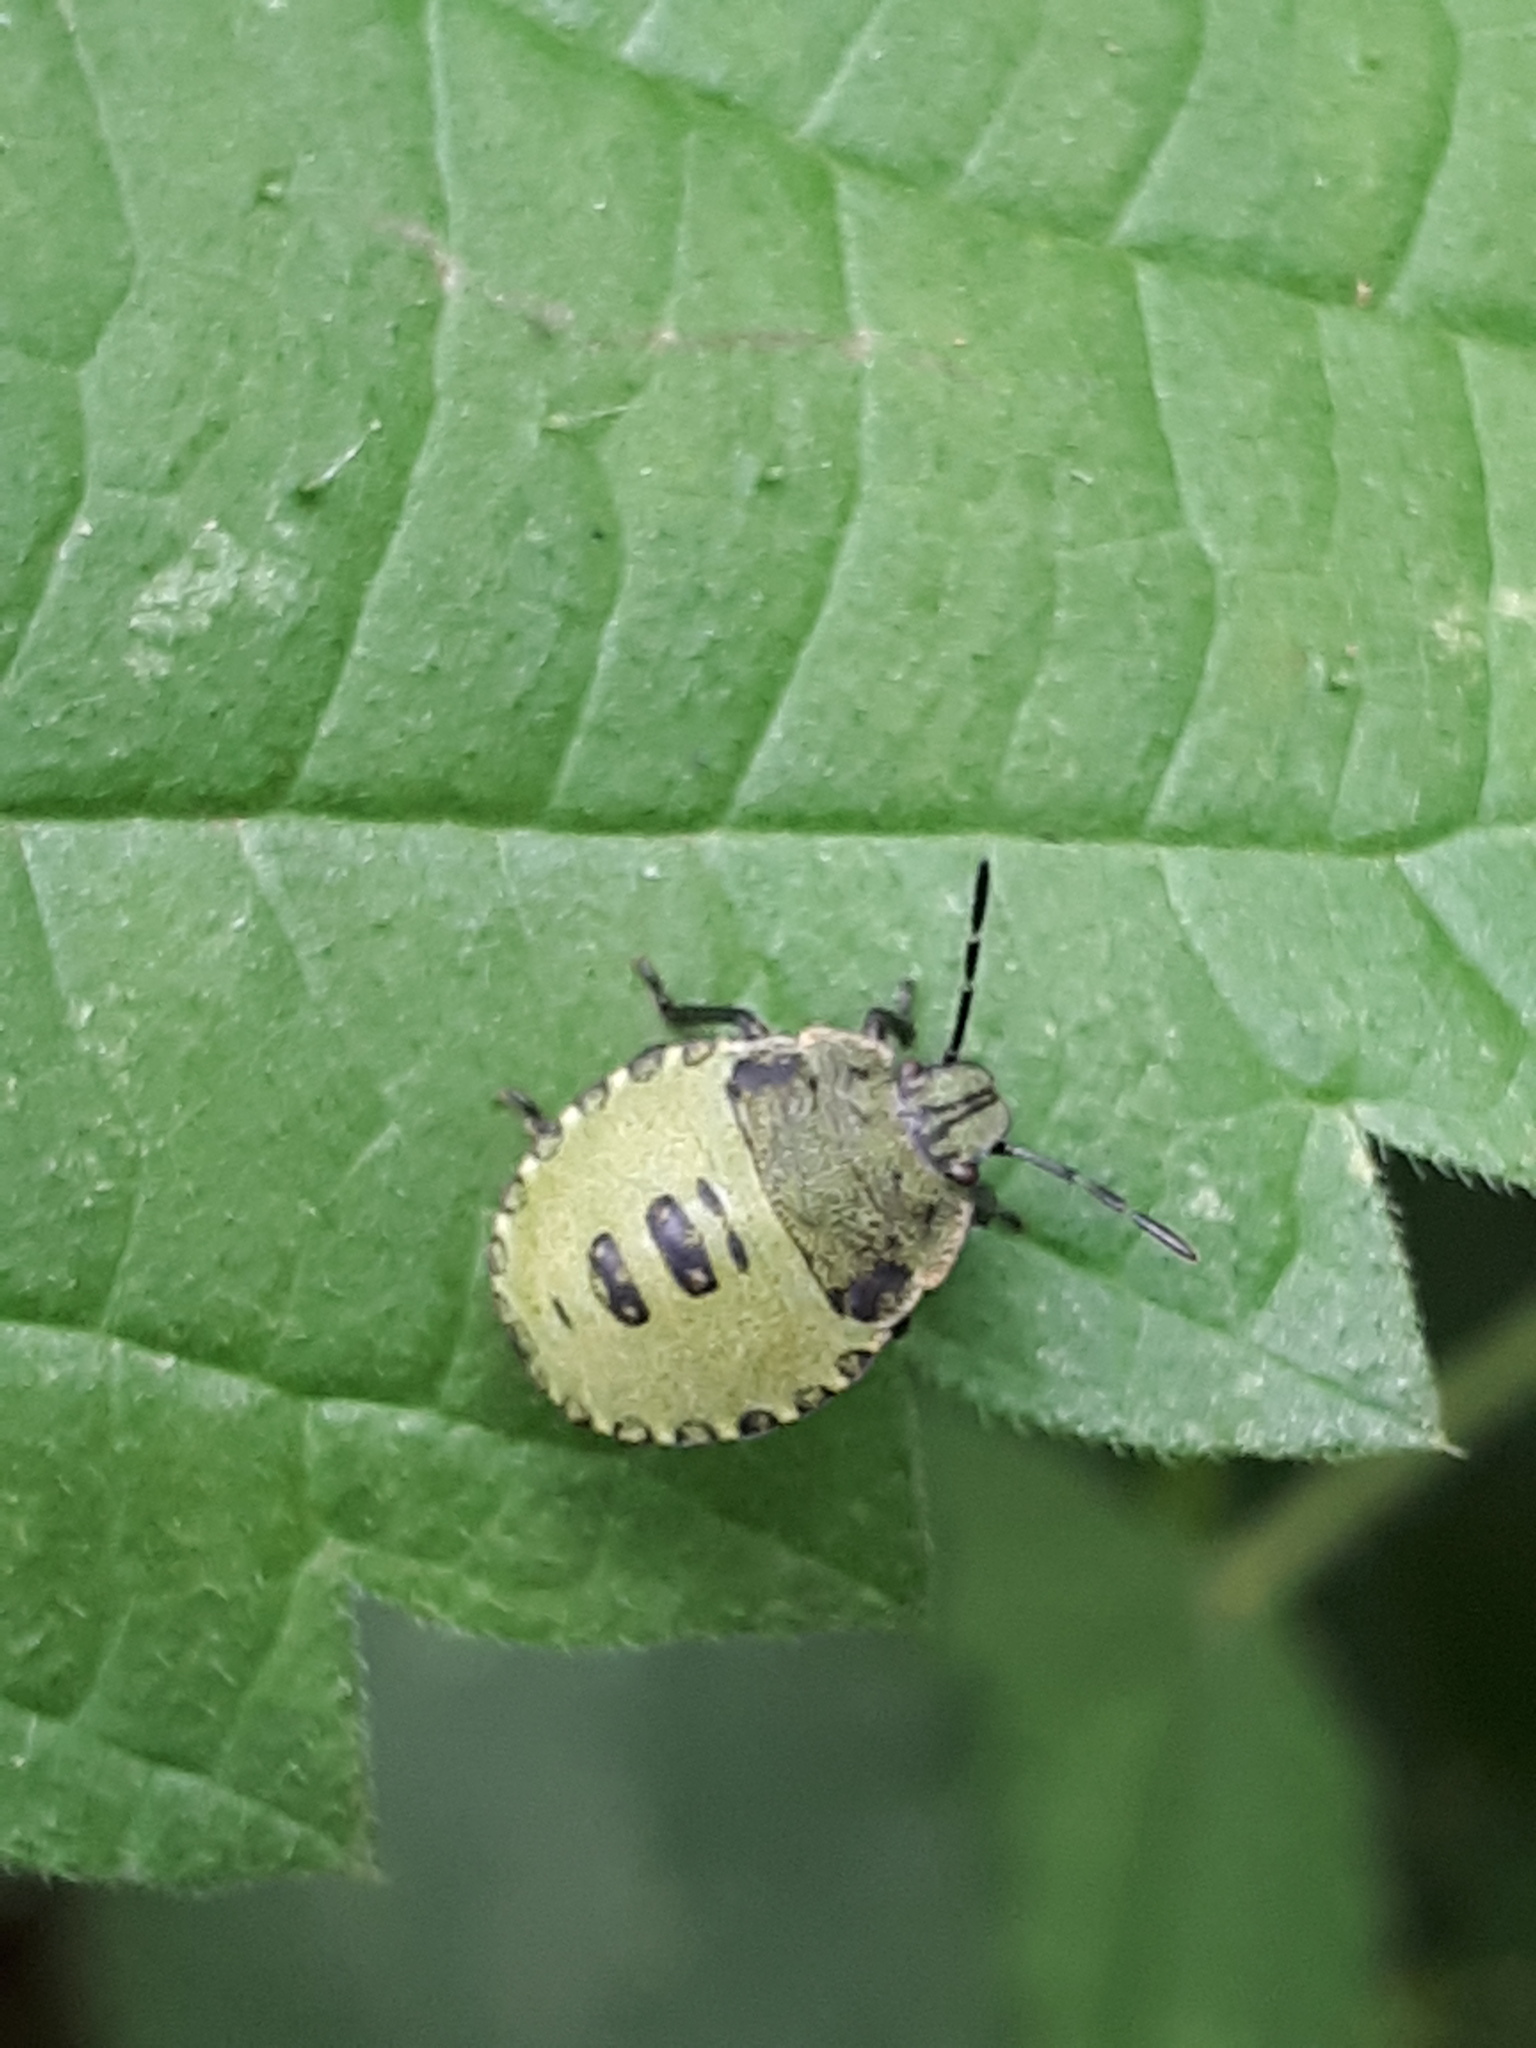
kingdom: Animalia
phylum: Arthropoda
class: Insecta
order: Hemiptera
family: Pentatomidae
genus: Palomena
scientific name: Palomena prasina
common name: Green shieldbug
